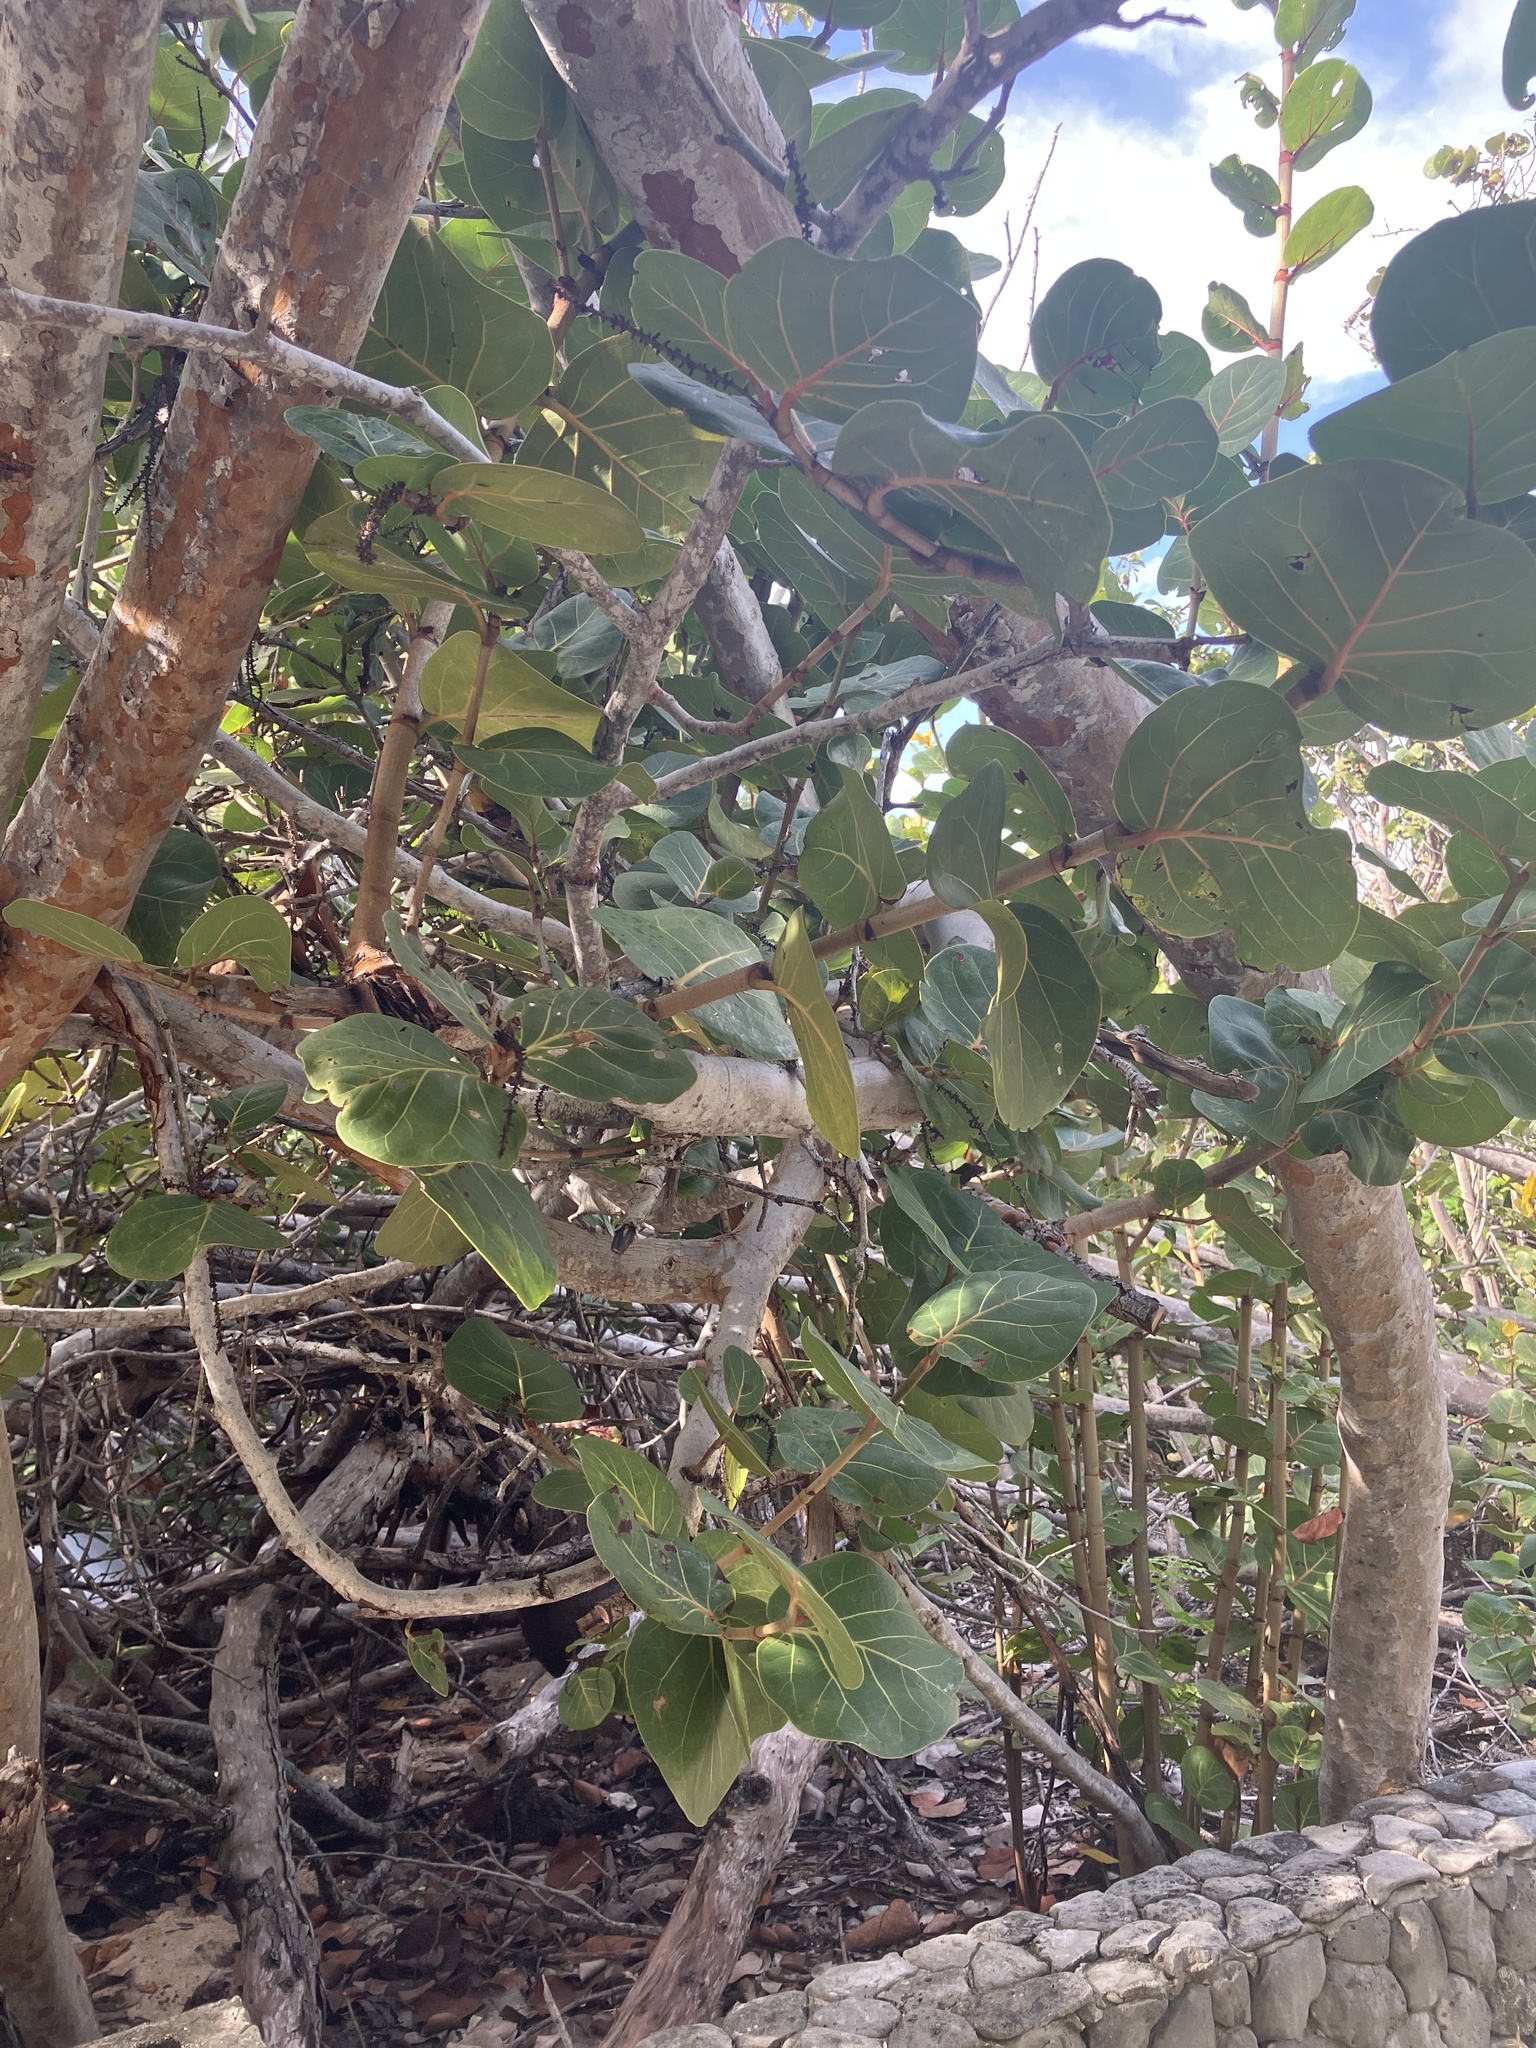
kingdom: Plantae
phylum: Tracheophyta
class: Magnoliopsida
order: Caryophyllales
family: Polygonaceae
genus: Coccoloba
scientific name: Coccoloba uvifera
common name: Seagrape
